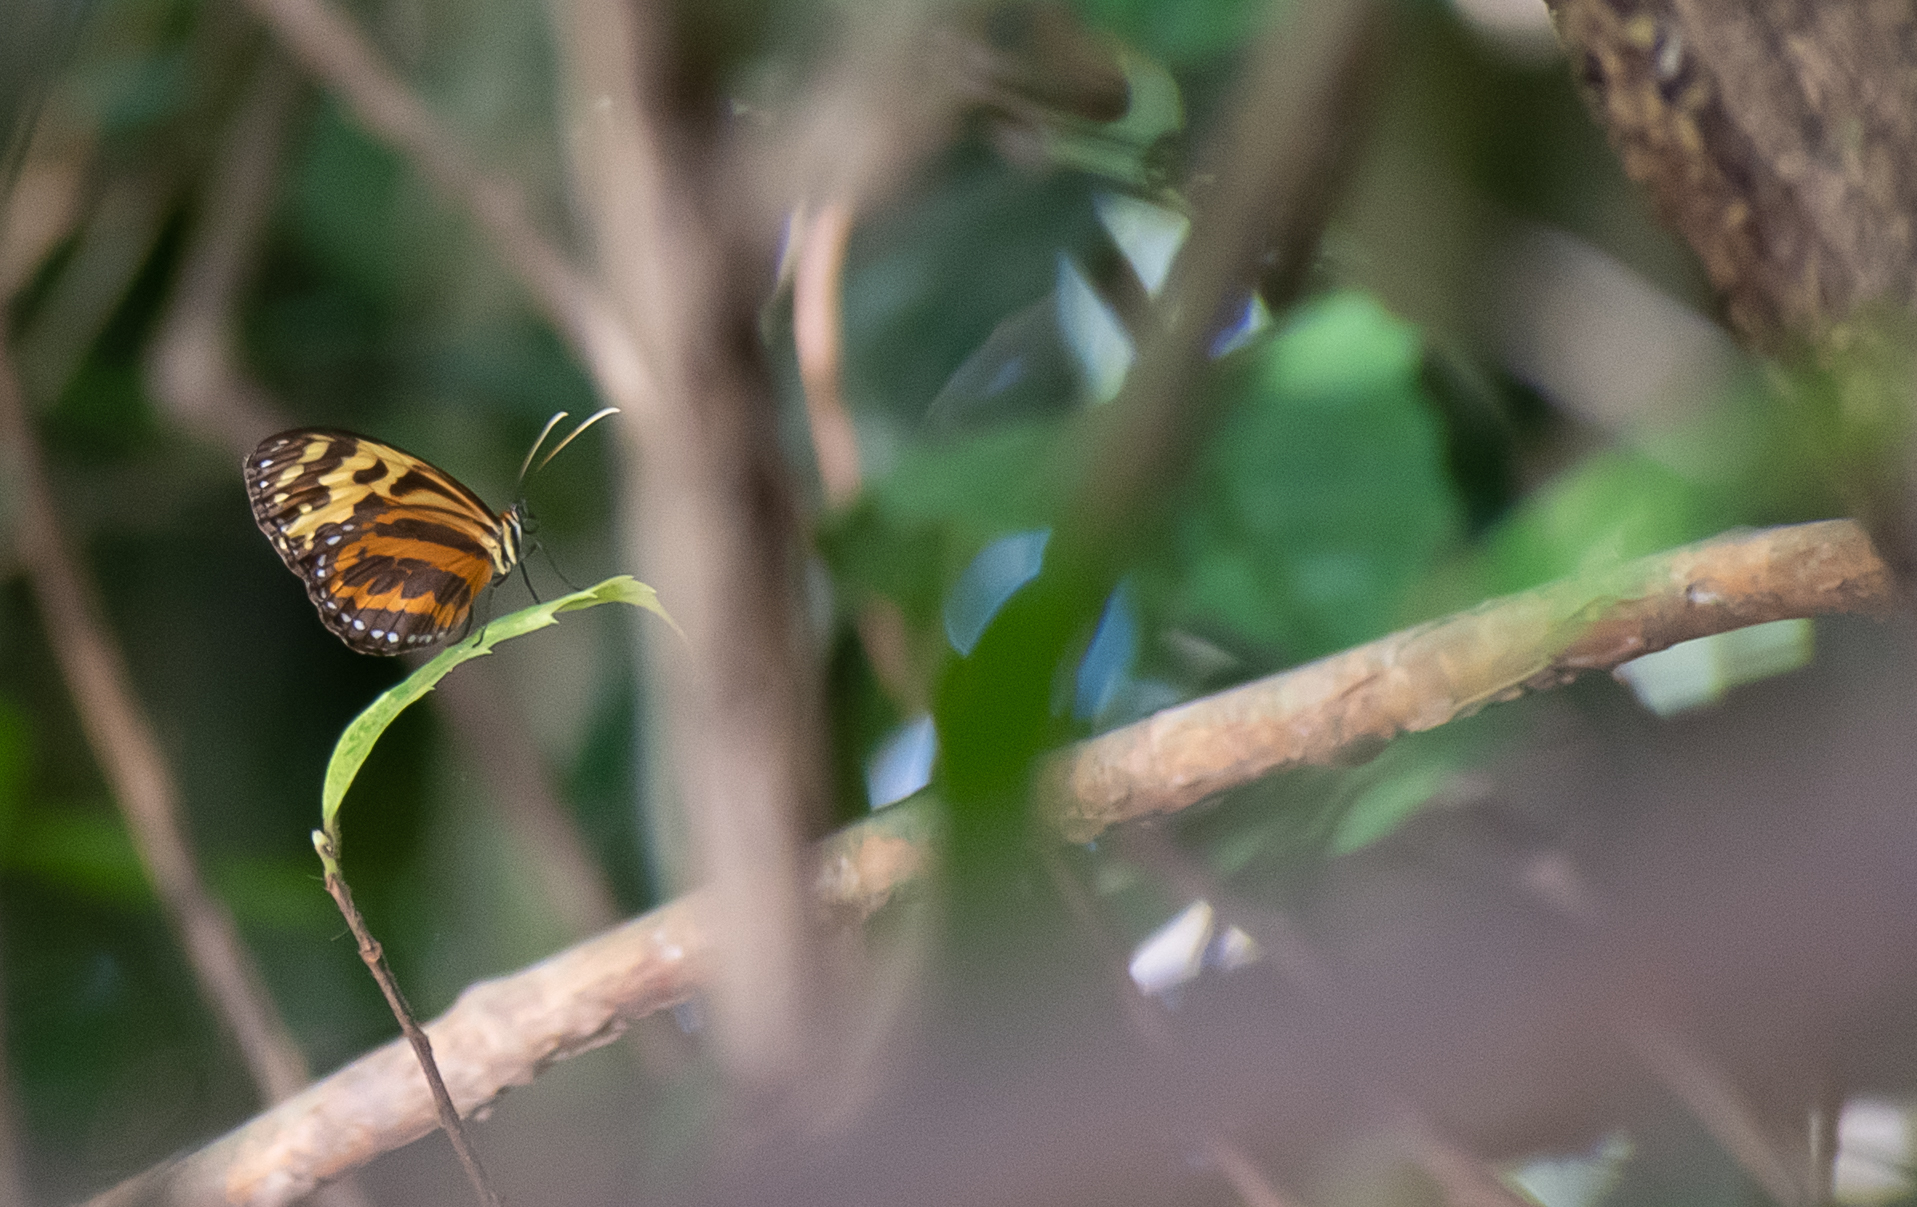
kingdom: Animalia
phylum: Arthropoda
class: Insecta
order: Lepidoptera
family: Nymphalidae
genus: Tithorea
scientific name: Tithorea harmonia
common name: Harmonia tigerwing
